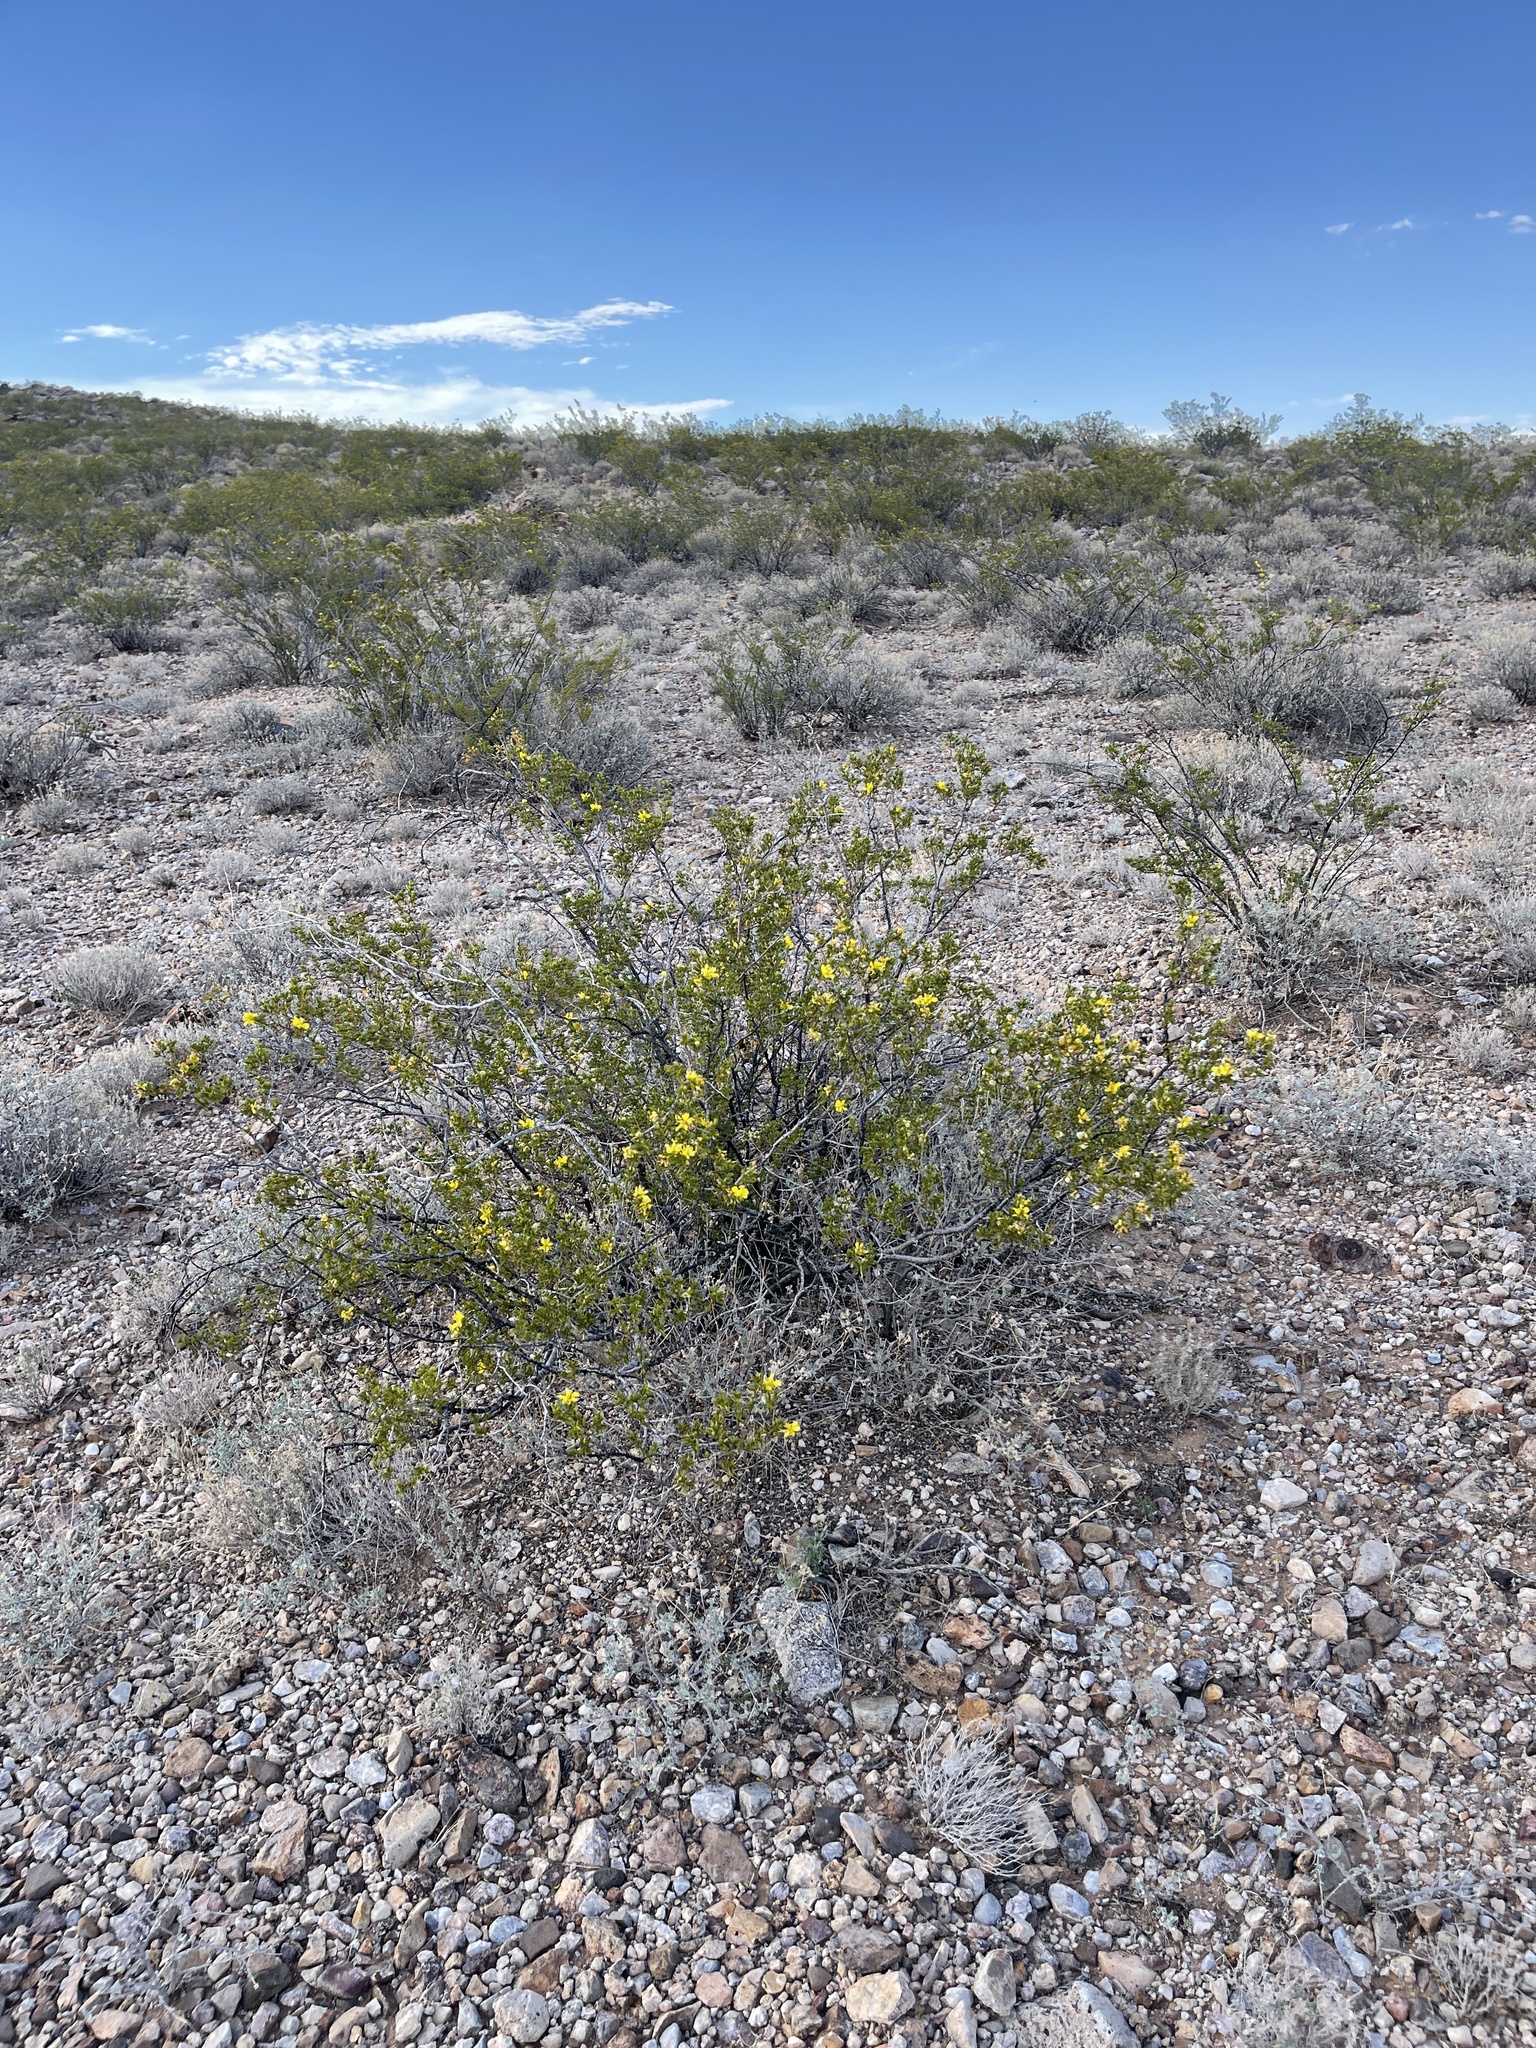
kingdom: Plantae
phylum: Tracheophyta
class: Magnoliopsida
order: Zygophyllales
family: Zygophyllaceae
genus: Larrea
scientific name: Larrea tridentata
